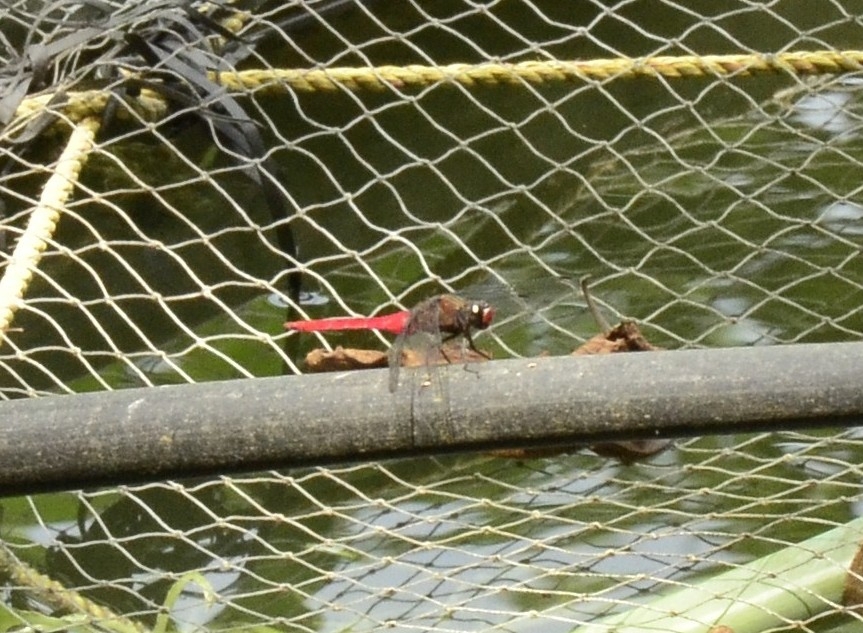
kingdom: Animalia
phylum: Arthropoda
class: Insecta
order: Odonata
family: Libellulidae
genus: Orthetrum
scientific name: Orthetrum chrysis
